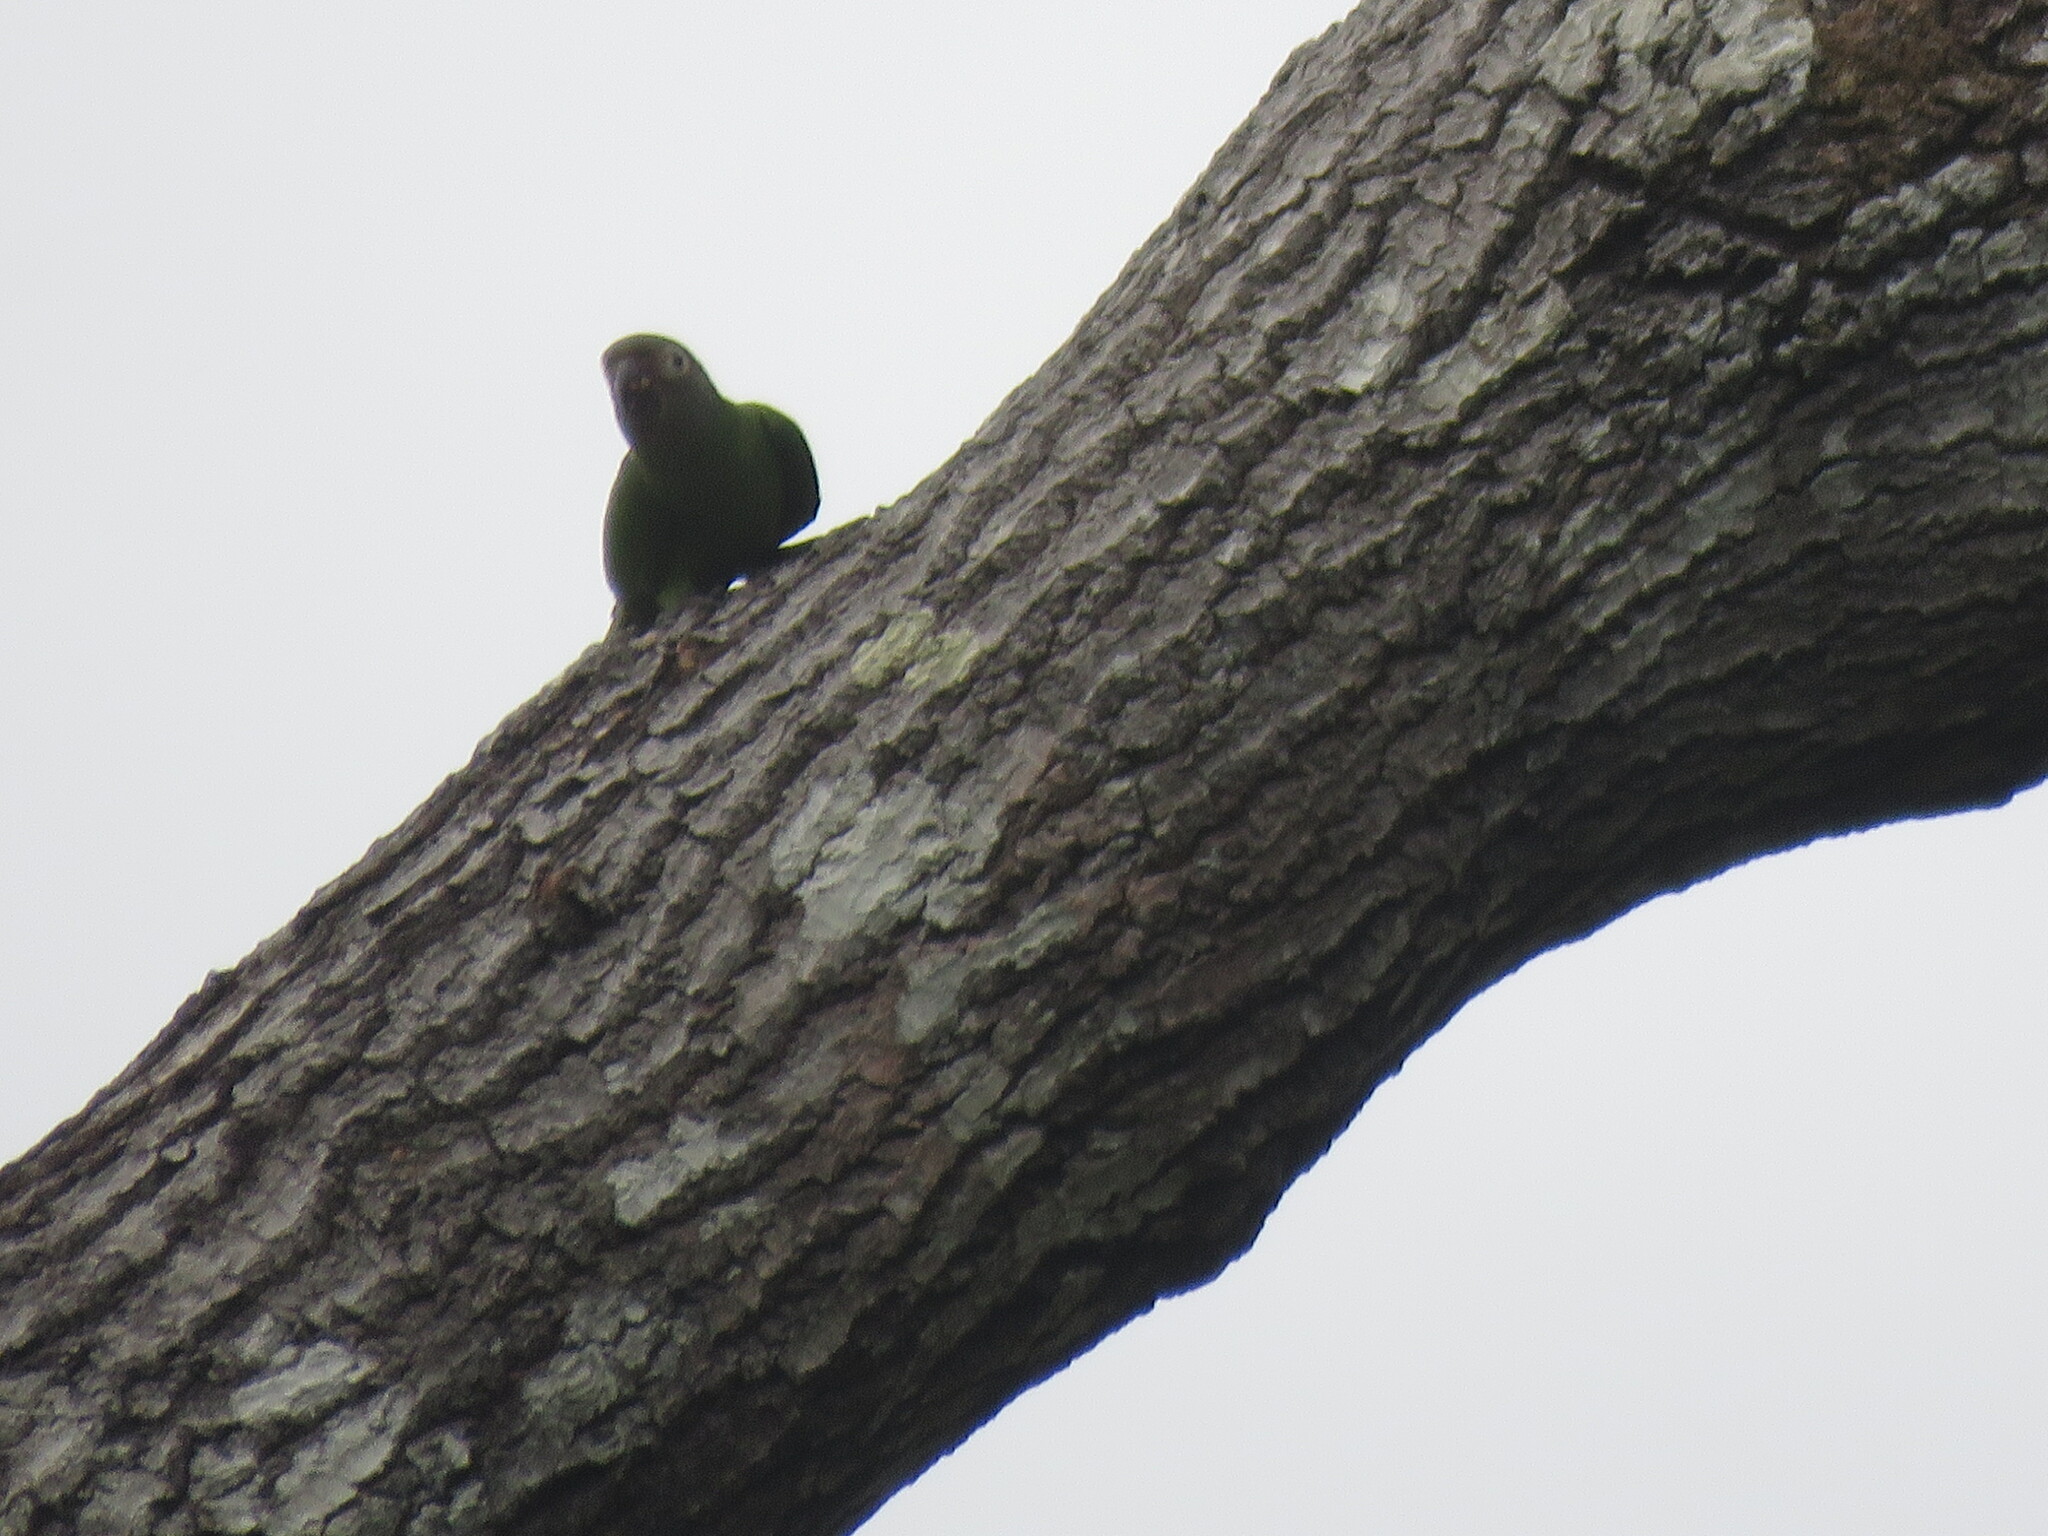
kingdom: Animalia
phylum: Chordata
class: Aves
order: Psittaciformes
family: Psittacidae
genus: Aratinga
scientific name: Aratinga weddellii
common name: Dusky-headed parakeet
